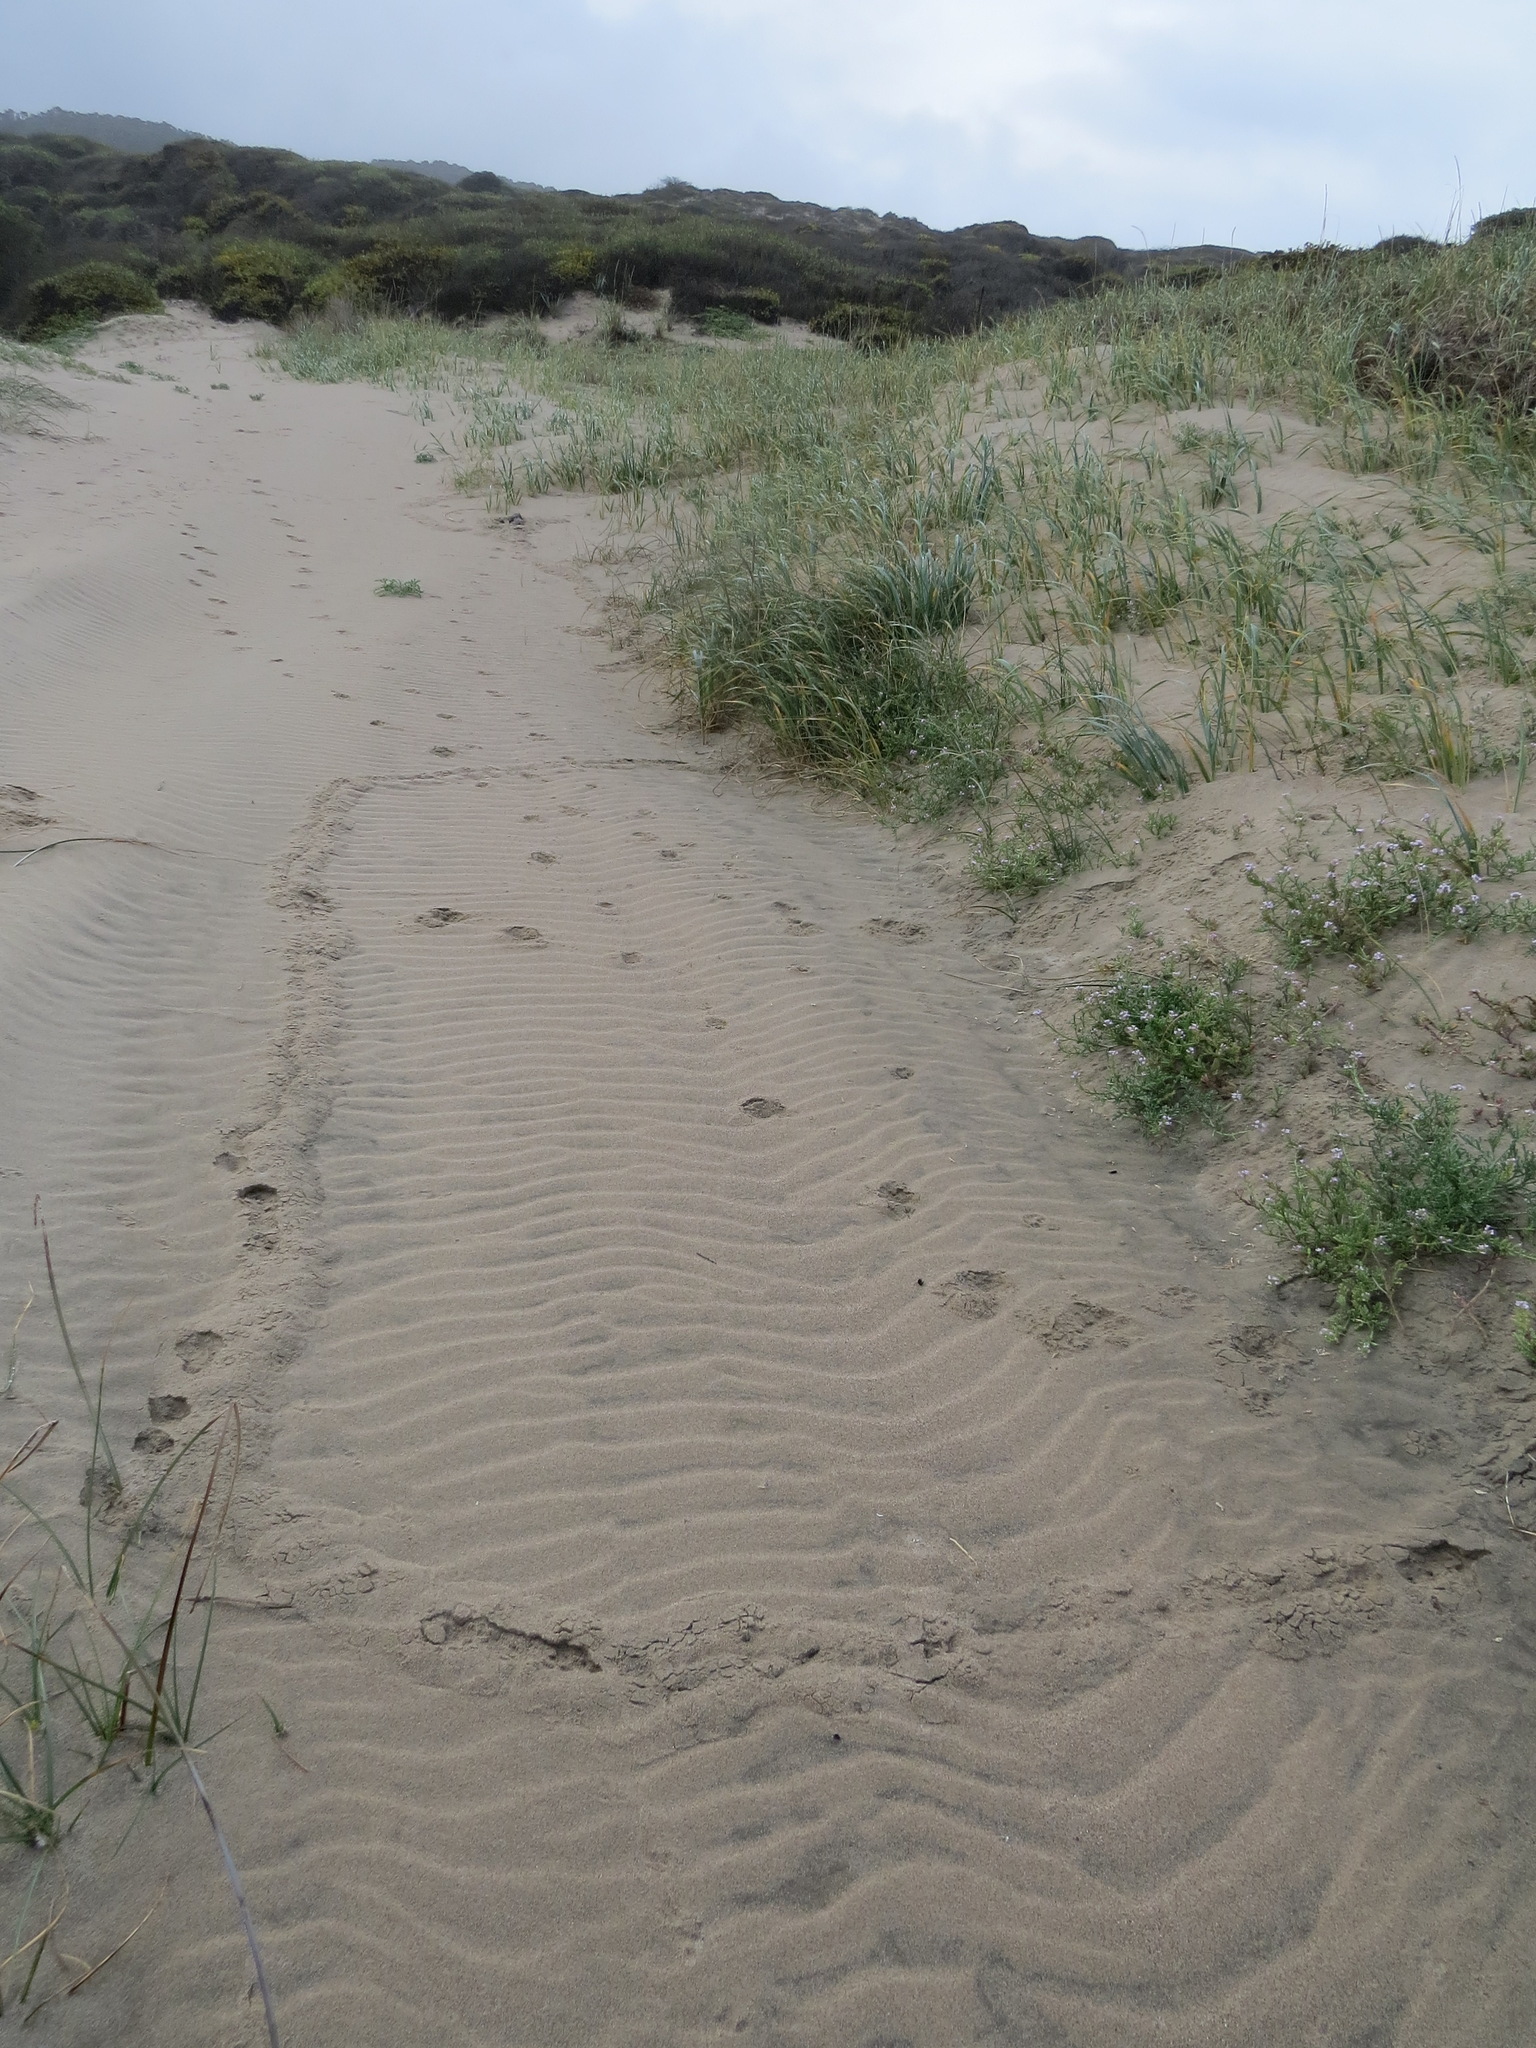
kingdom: Animalia
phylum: Chordata
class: Mammalia
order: Soricomorpha
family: Talpidae
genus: Scapanus
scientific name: Scapanus latimanus
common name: Broad-footed mole
